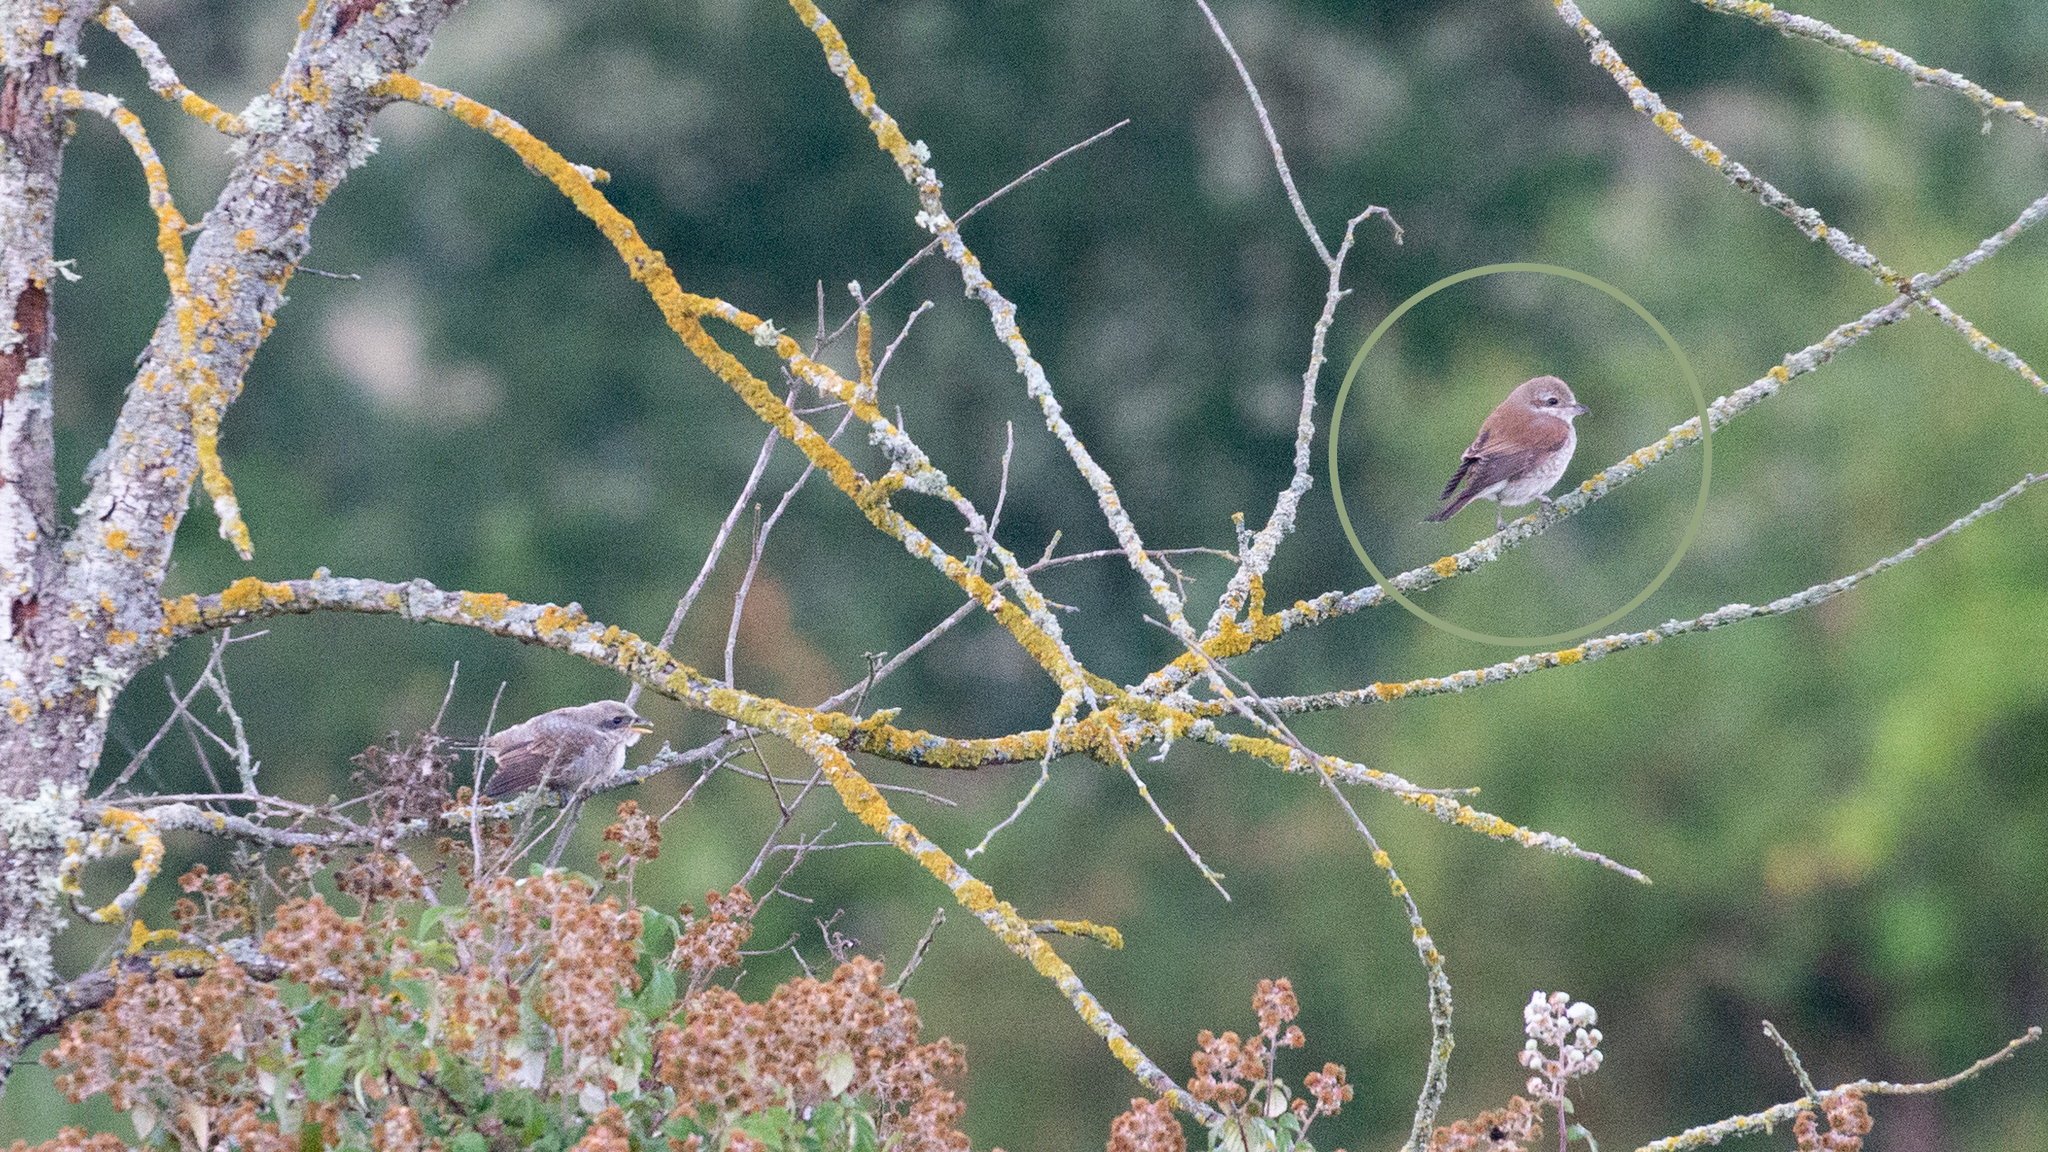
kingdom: Animalia
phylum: Chordata
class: Aves
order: Passeriformes
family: Laniidae
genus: Lanius
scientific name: Lanius collurio
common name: Red-backed shrike
